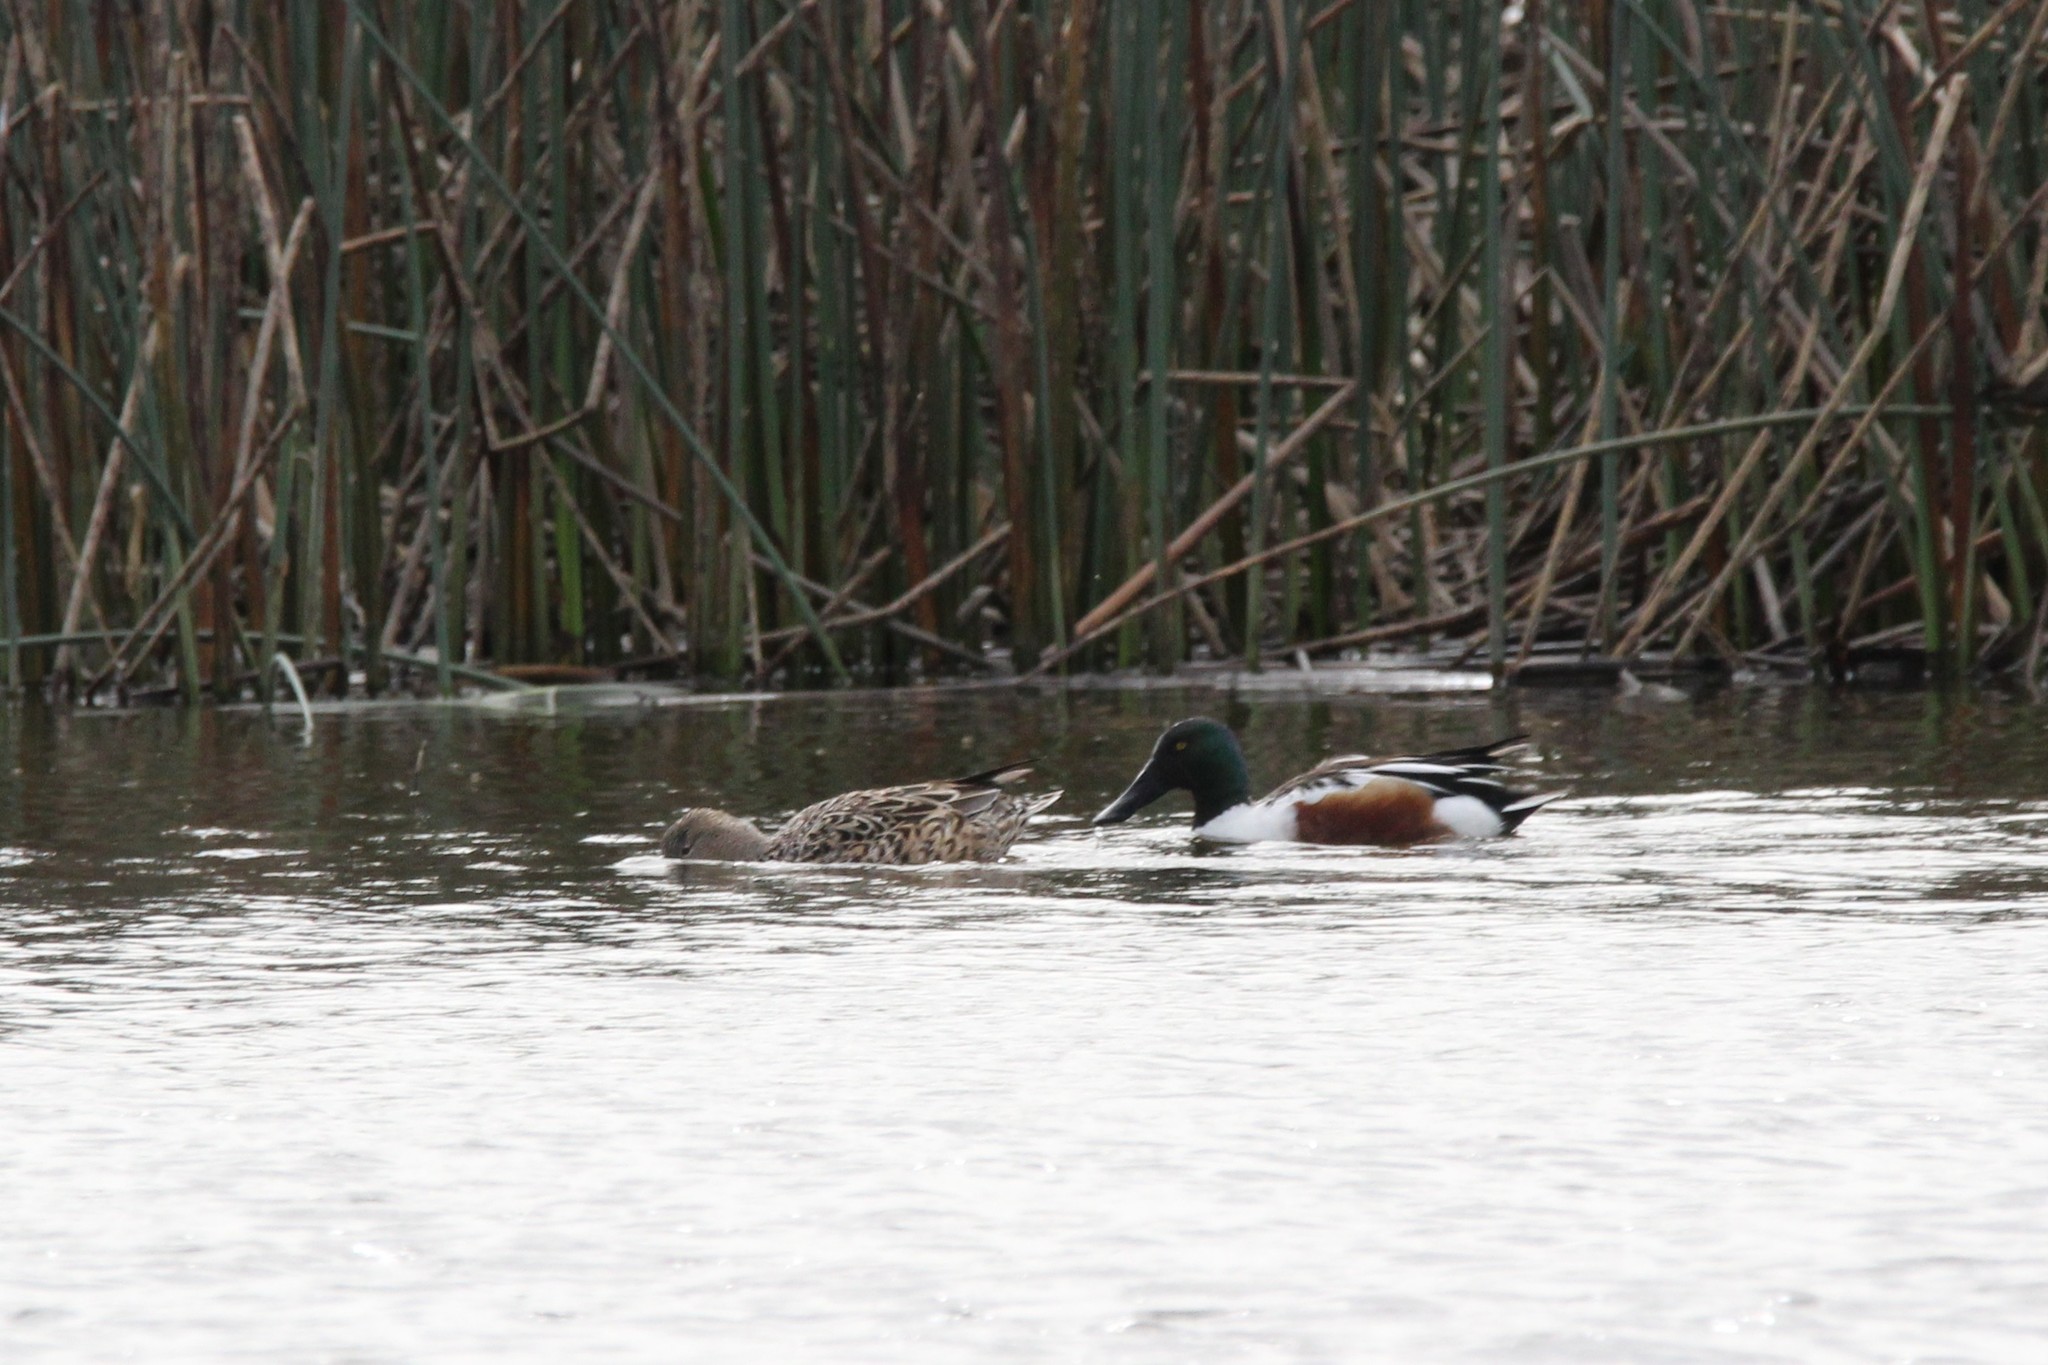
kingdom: Animalia
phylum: Chordata
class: Aves
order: Anseriformes
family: Anatidae
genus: Spatula
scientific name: Spatula clypeata
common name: Northern shoveler
